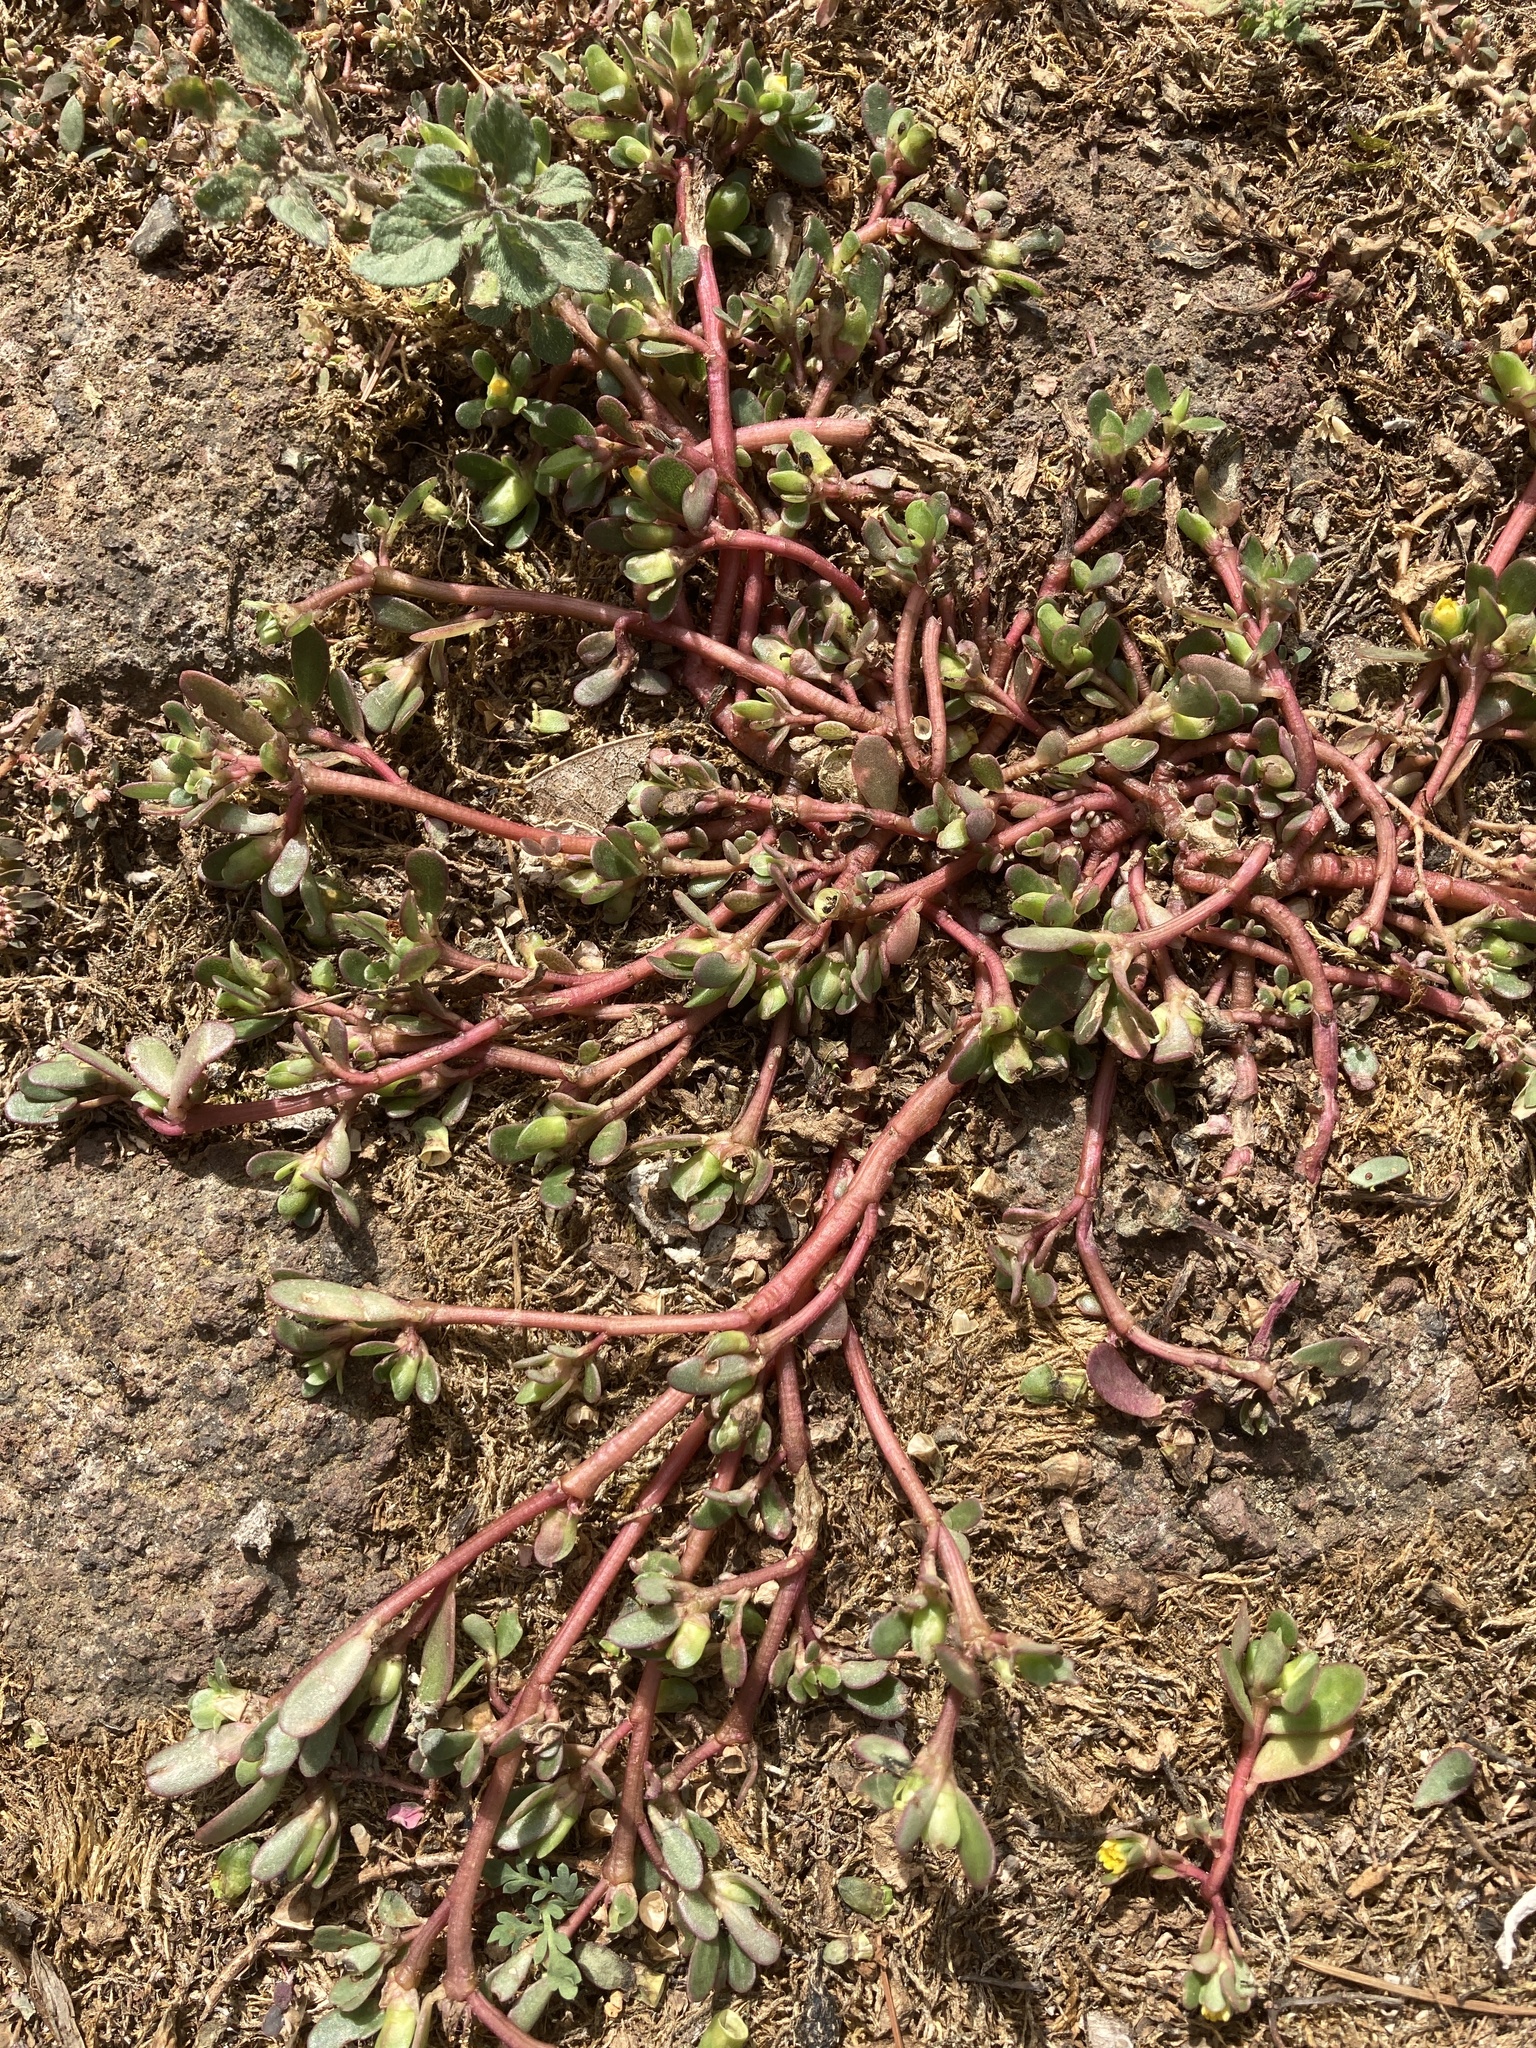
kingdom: Plantae
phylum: Tracheophyta
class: Magnoliopsida
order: Caryophyllales
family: Portulacaceae
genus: Portulaca
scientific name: Portulaca oleracea
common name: Common purslane
